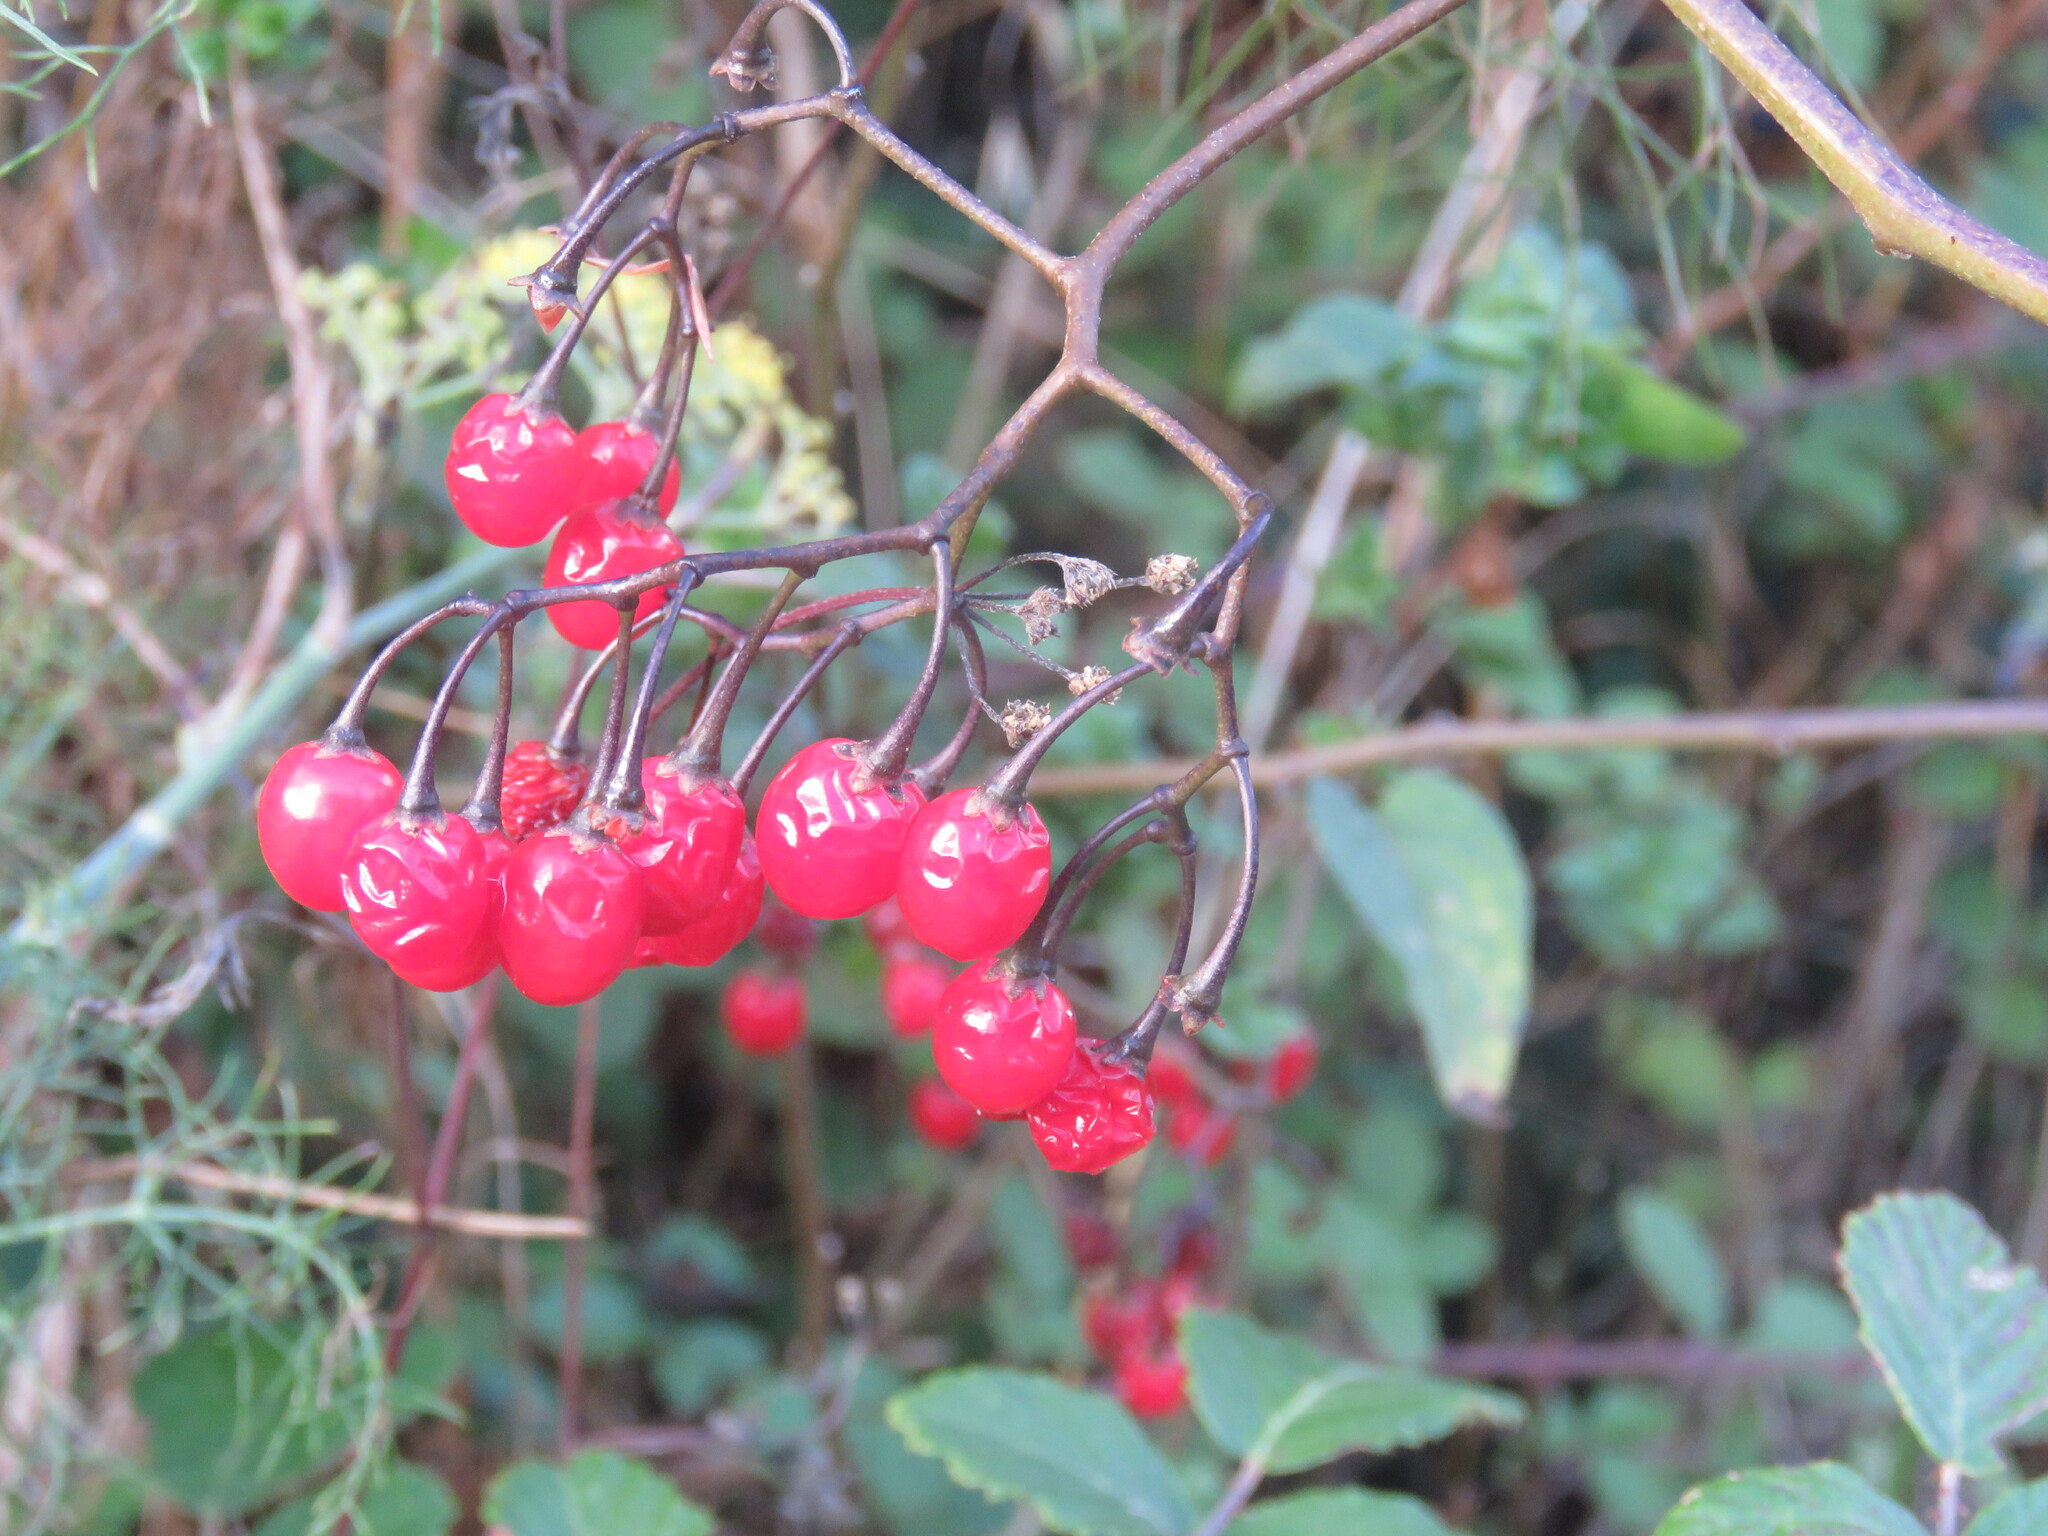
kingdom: Plantae
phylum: Tracheophyta
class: Magnoliopsida
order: Solanales
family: Solanaceae
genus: Solanum
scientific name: Solanum dulcamara
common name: Climbing nightshade
